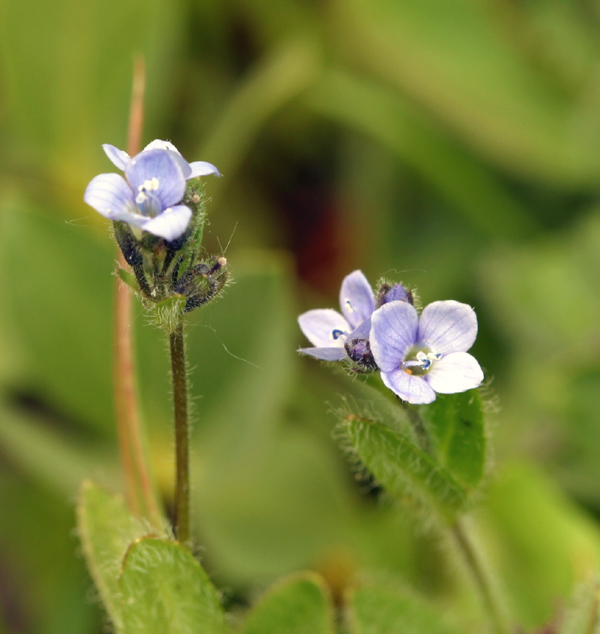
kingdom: Plantae
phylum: Tracheophyta
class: Magnoliopsida
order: Lamiales
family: Plantaginaceae
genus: Veronica
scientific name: Veronica wormskjoldii
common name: American alpine speedwell
